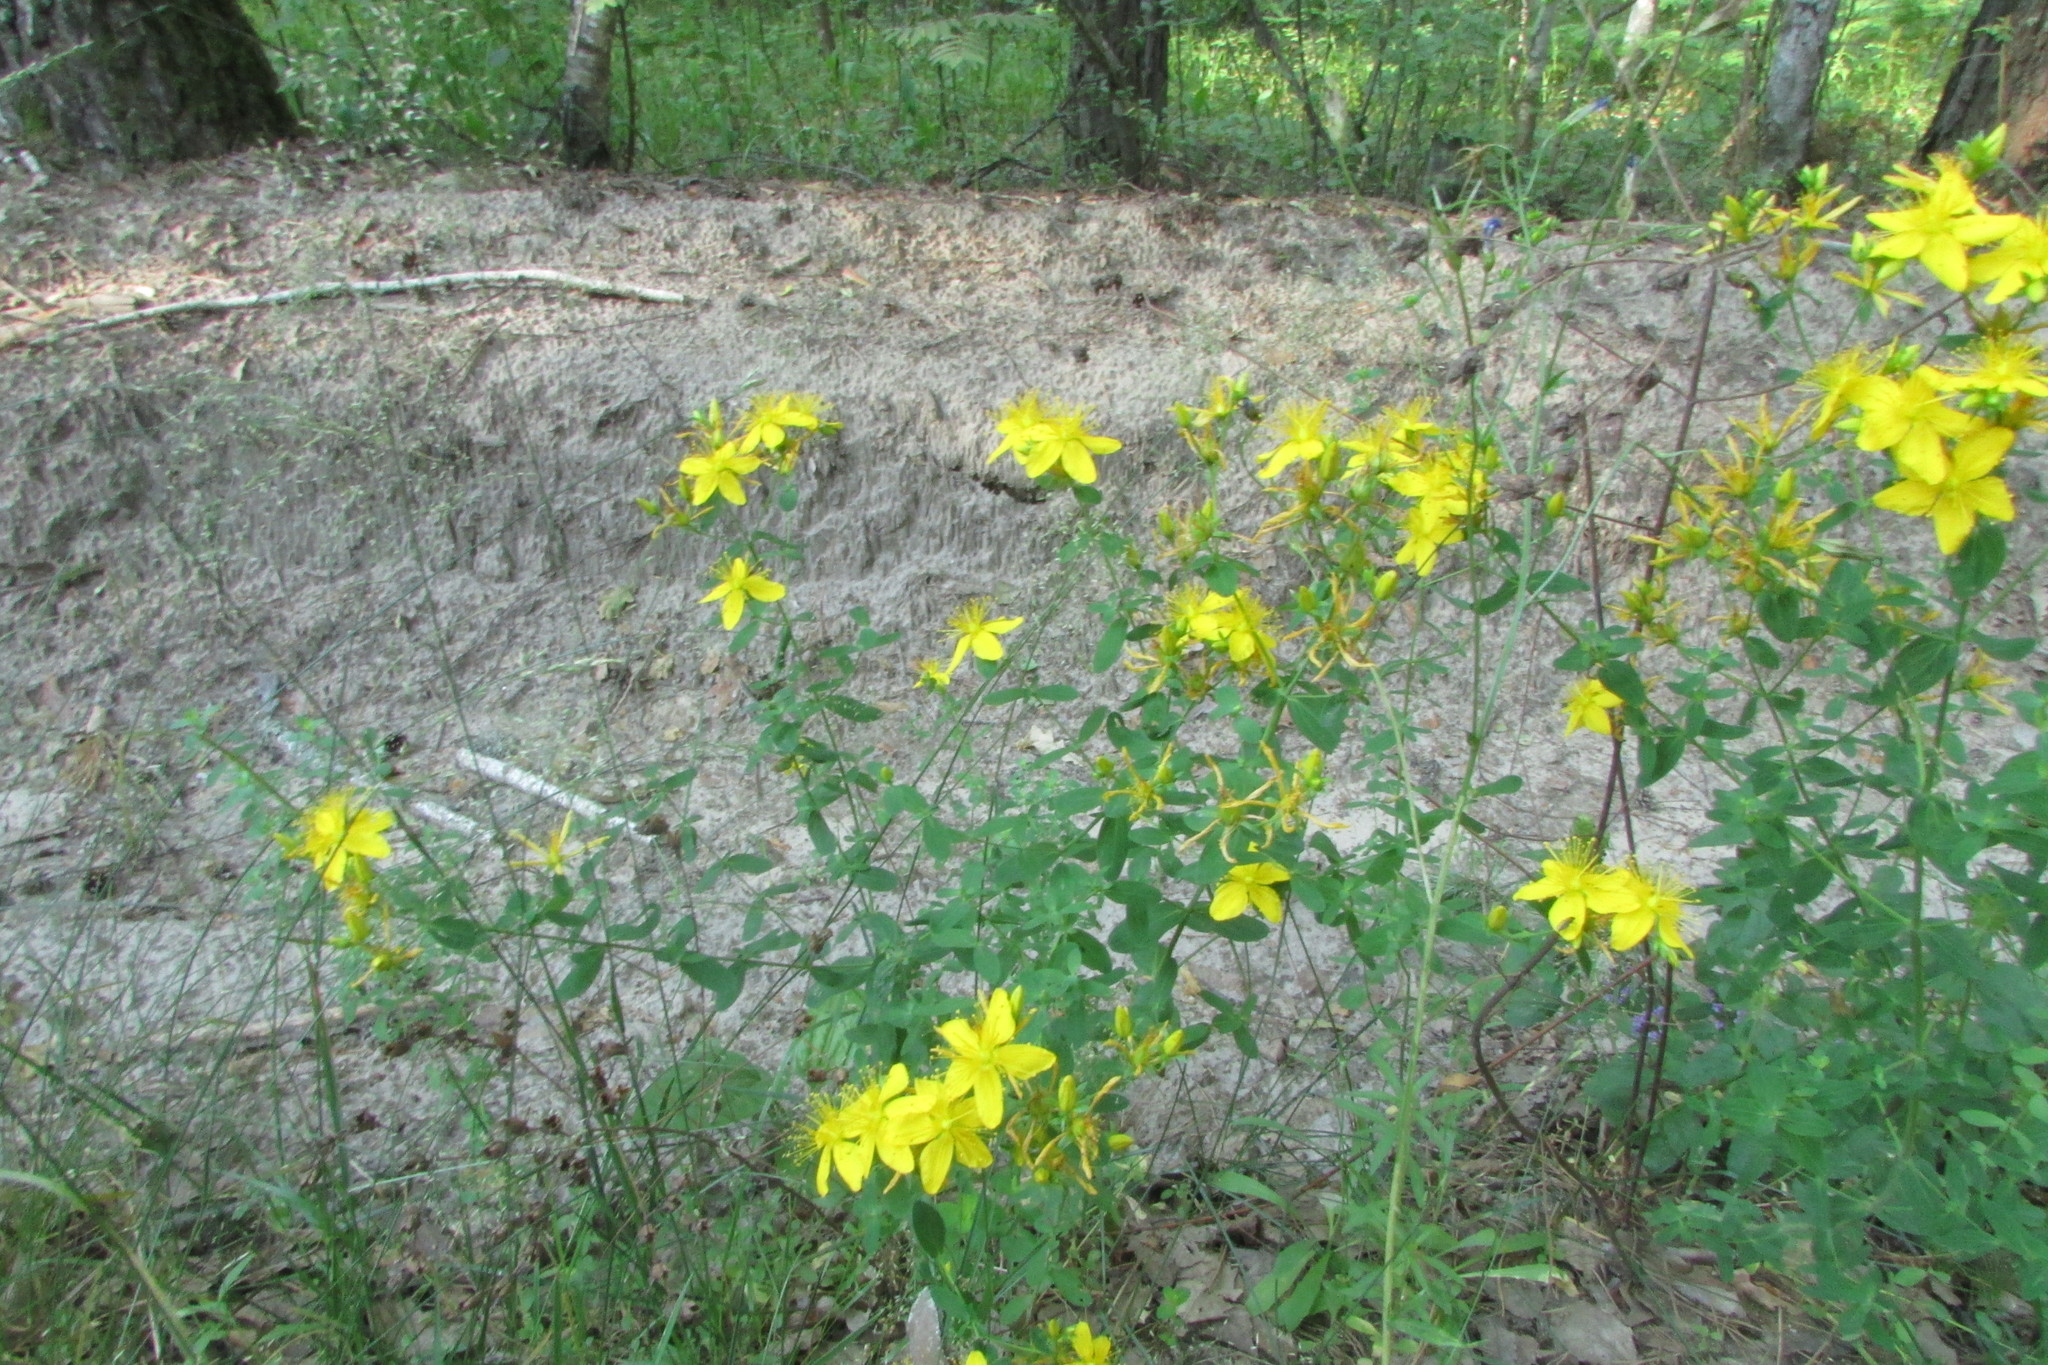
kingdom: Plantae
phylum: Tracheophyta
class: Magnoliopsida
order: Malpighiales
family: Hypericaceae
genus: Hypericum
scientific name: Hypericum perforatum
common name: Common st. johnswort
